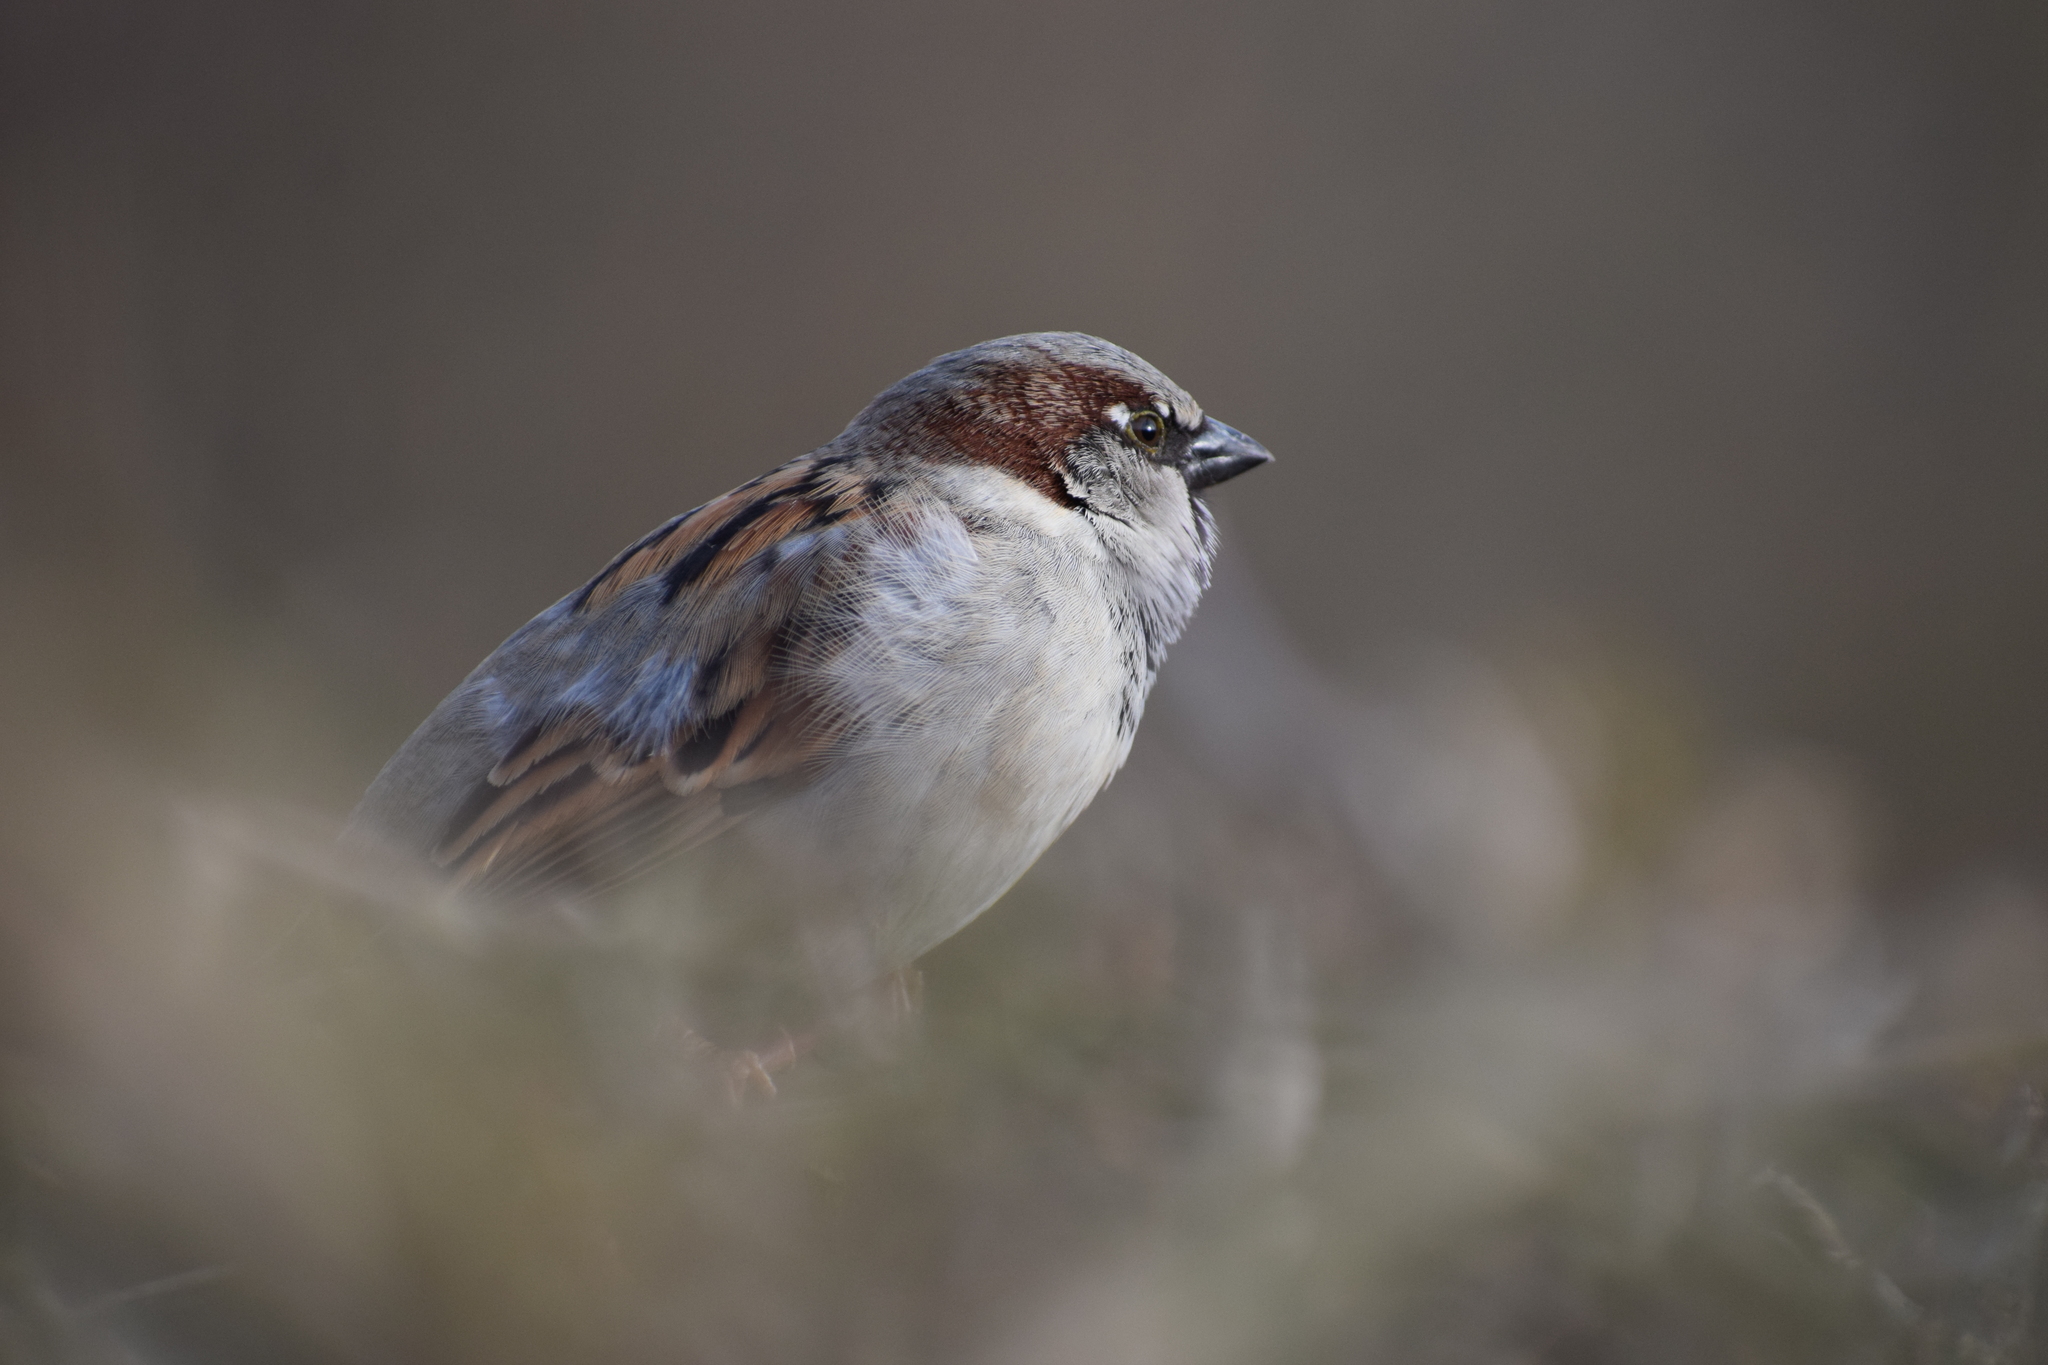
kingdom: Animalia
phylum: Chordata
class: Aves
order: Passeriformes
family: Passeridae
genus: Passer
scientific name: Passer domesticus
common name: House sparrow
